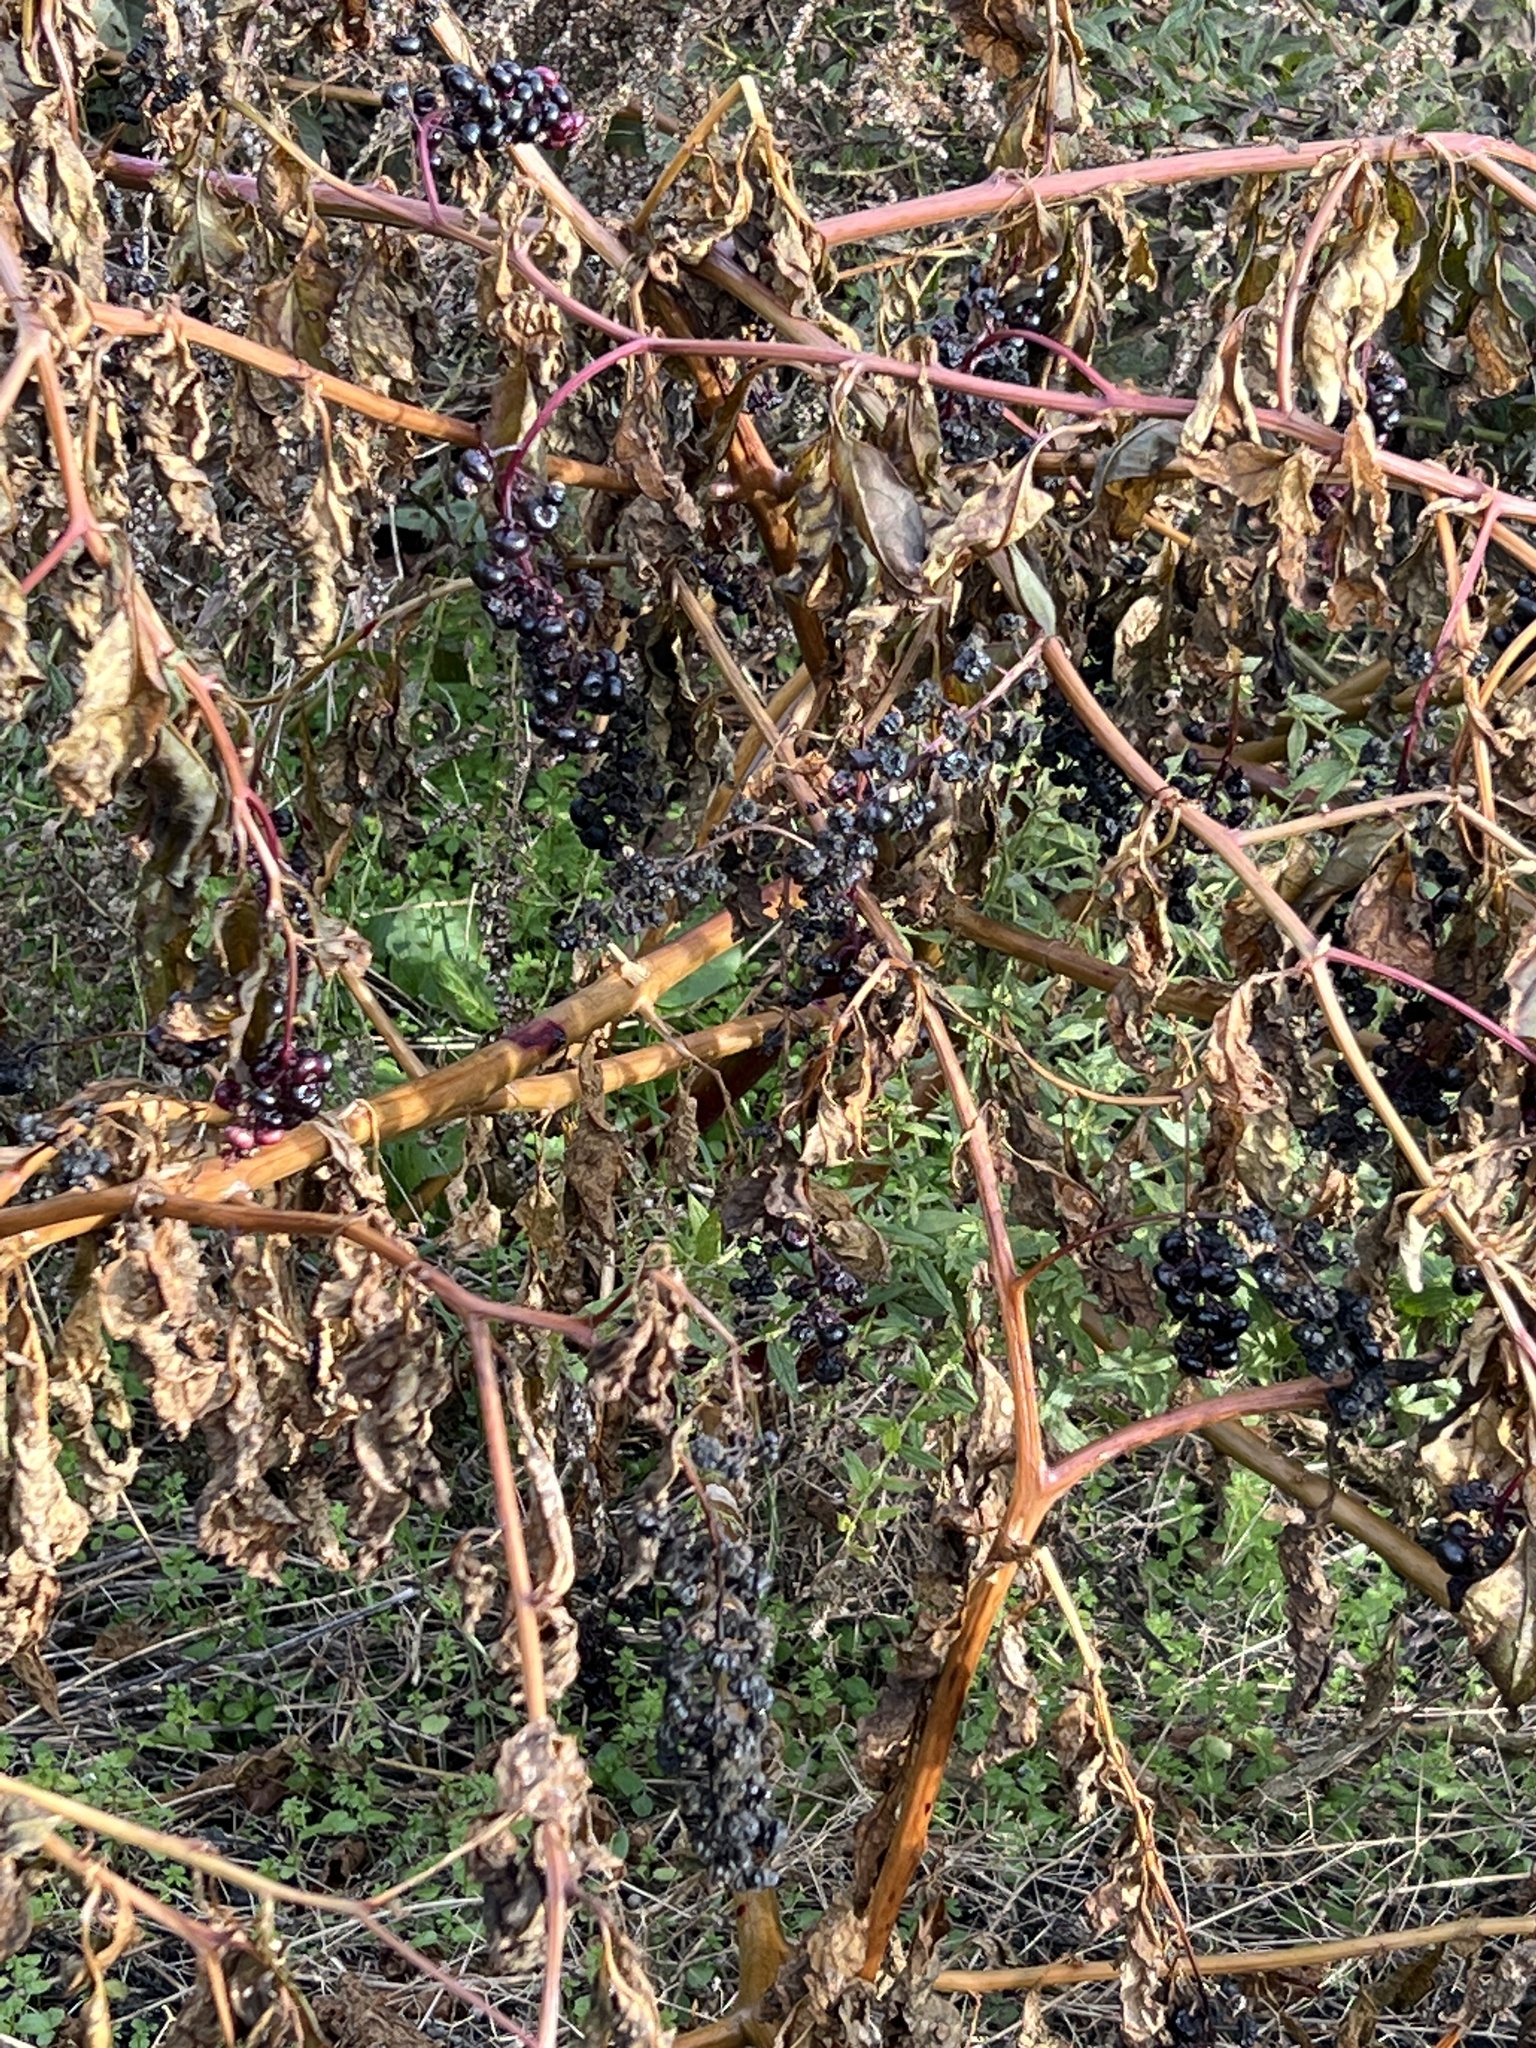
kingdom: Plantae
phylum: Tracheophyta
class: Magnoliopsida
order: Caryophyllales
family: Phytolaccaceae
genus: Phytolacca
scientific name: Phytolacca americana
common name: American pokeweed
